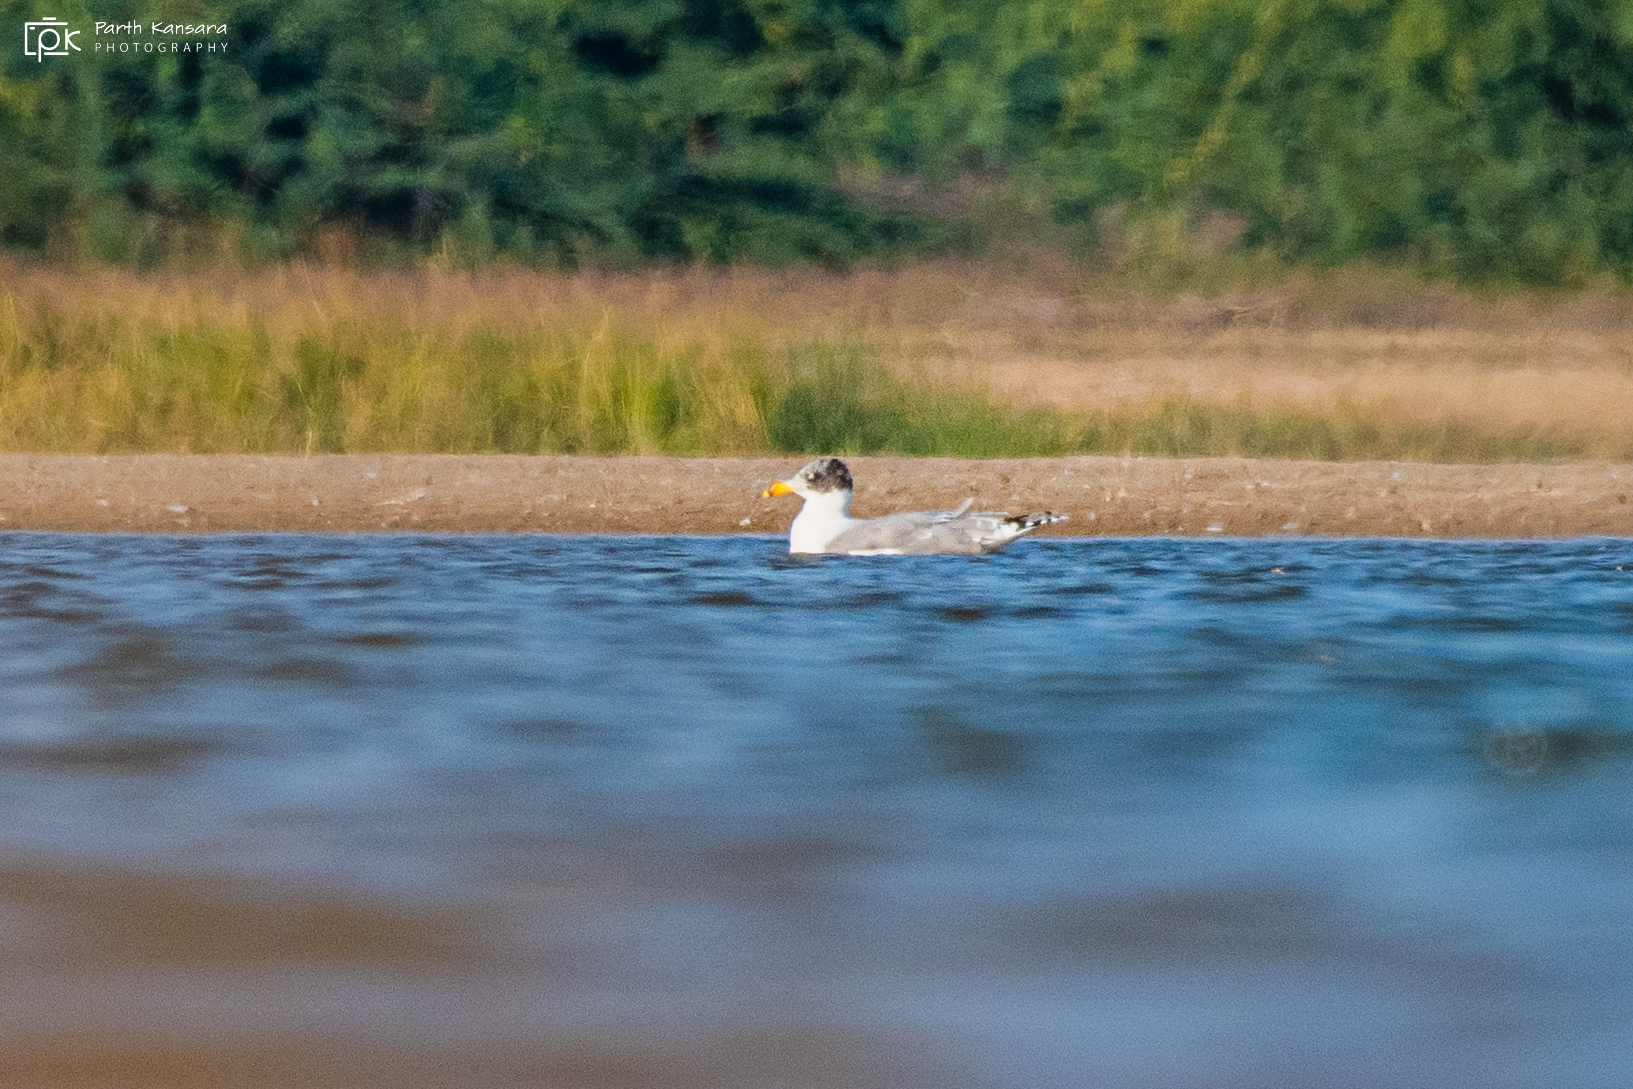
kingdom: Animalia
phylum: Chordata
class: Aves
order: Charadriiformes
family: Laridae
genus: Ichthyaetus
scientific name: Ichthyaetus ichthyaetus
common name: Pallas's gull
